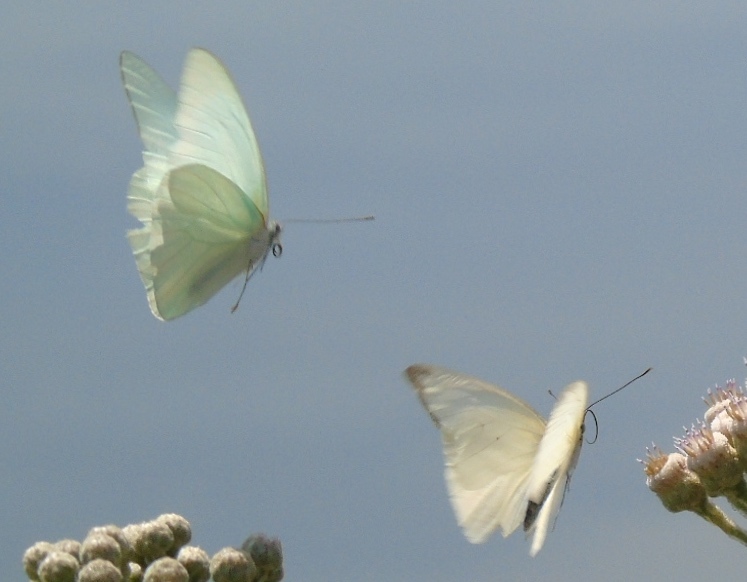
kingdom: Animalia
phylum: Arthropoda
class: Insecta
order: Lepidoptera
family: Pieridae
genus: Glutophrissa
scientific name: Glutophrissa drusilla
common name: Florida white
